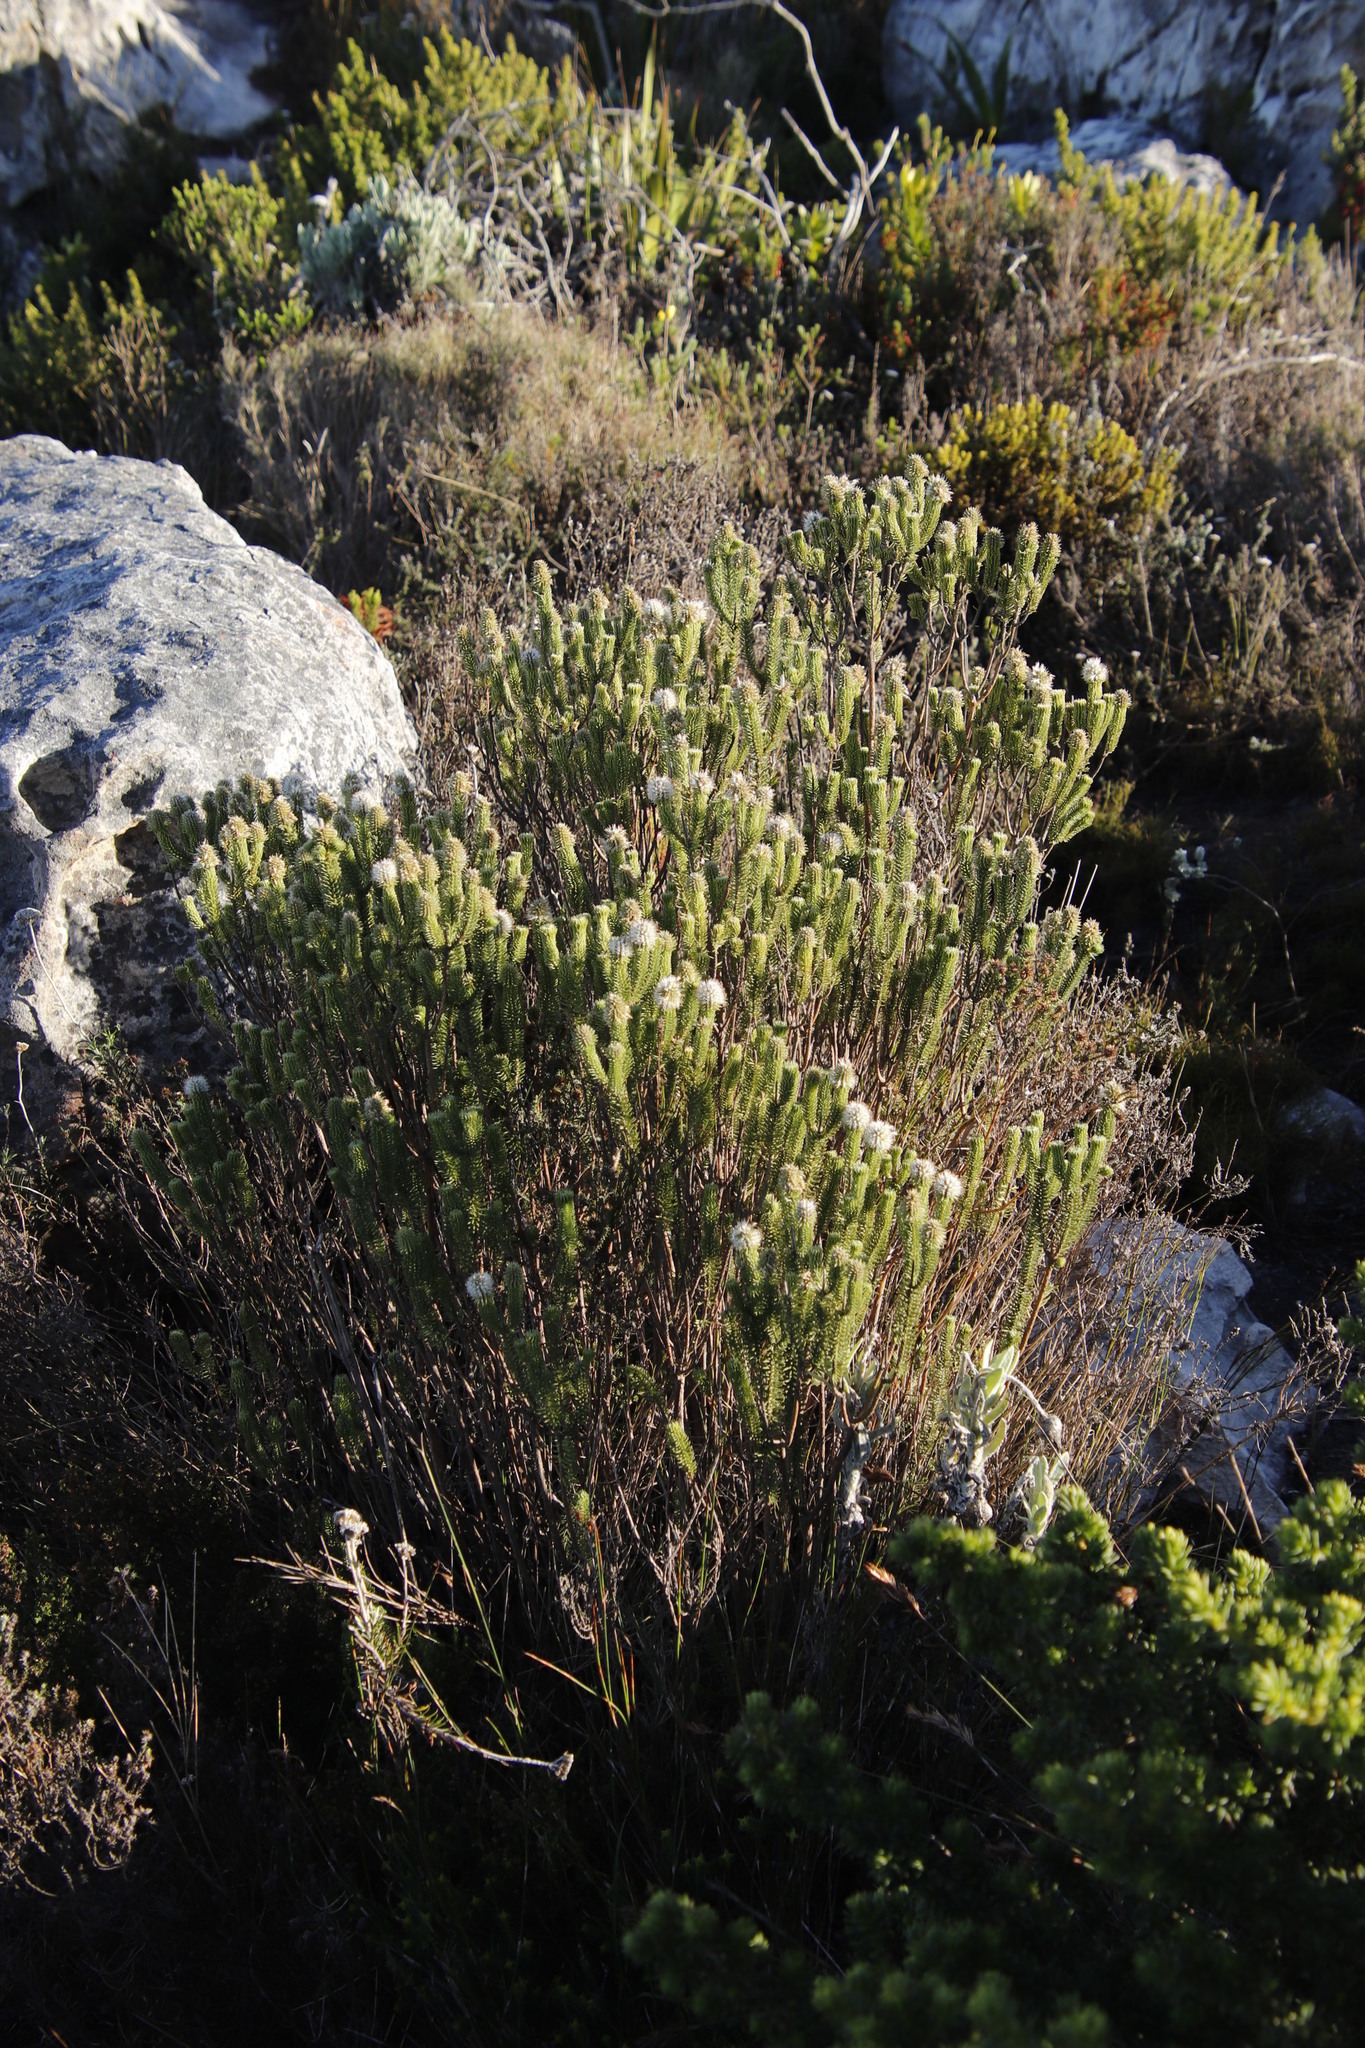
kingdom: Plantae
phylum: Tracheophyta
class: Magnoliopsida
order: Lamiales
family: Stilbaceae
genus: Stilbe
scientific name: Stilbe vestita
